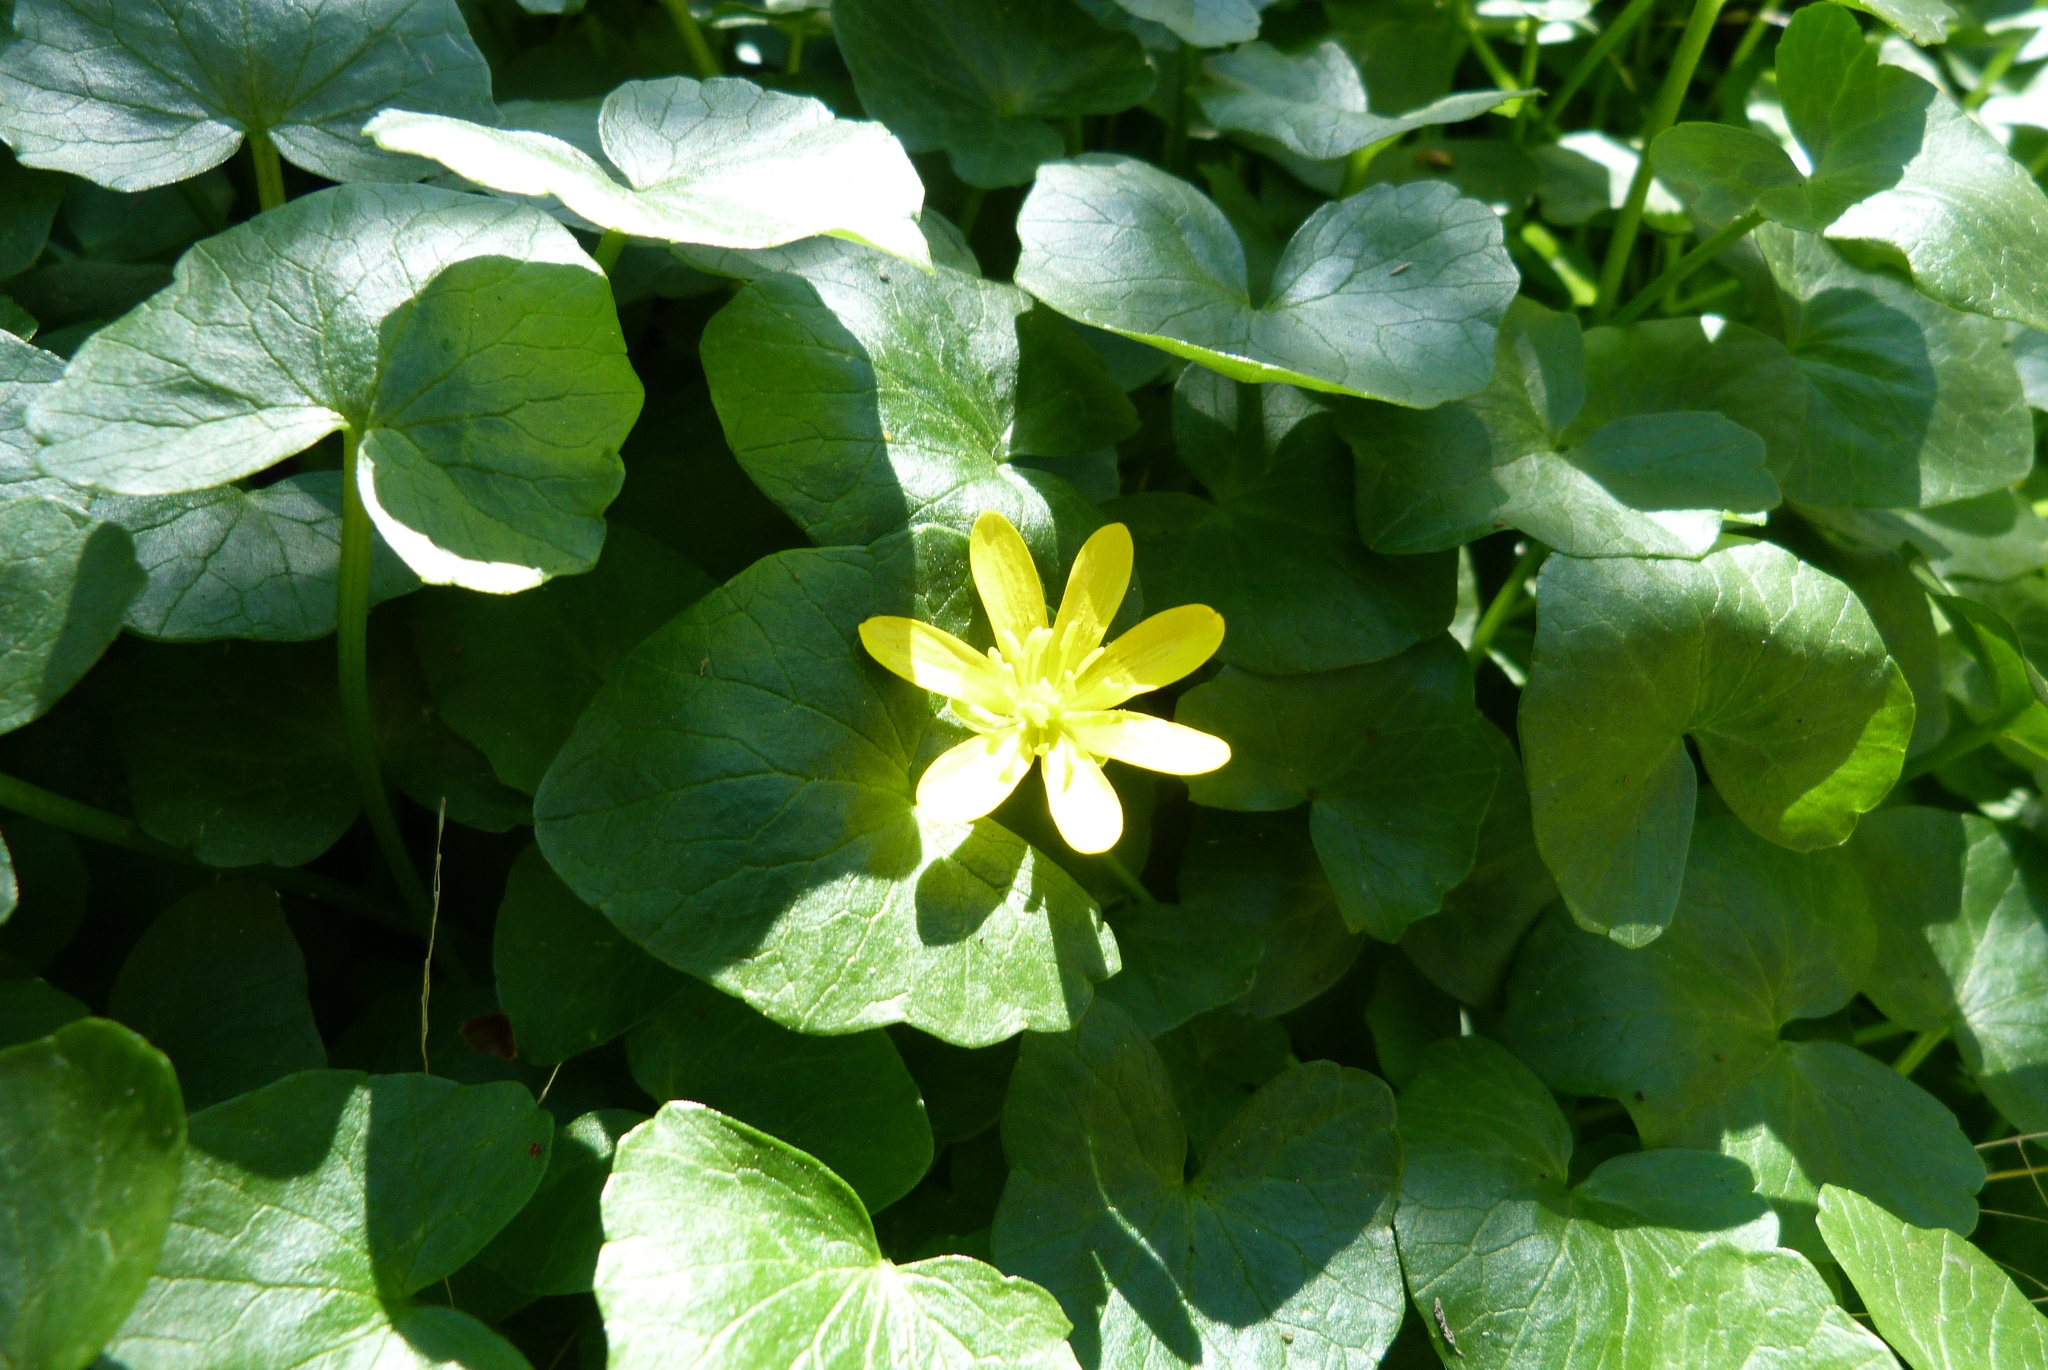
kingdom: Plantae
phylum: Tracheophyta
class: Magnoliopsida
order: Ranunculales
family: Ranunculaceae
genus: Ficaria
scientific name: Ficaria grandiflora
